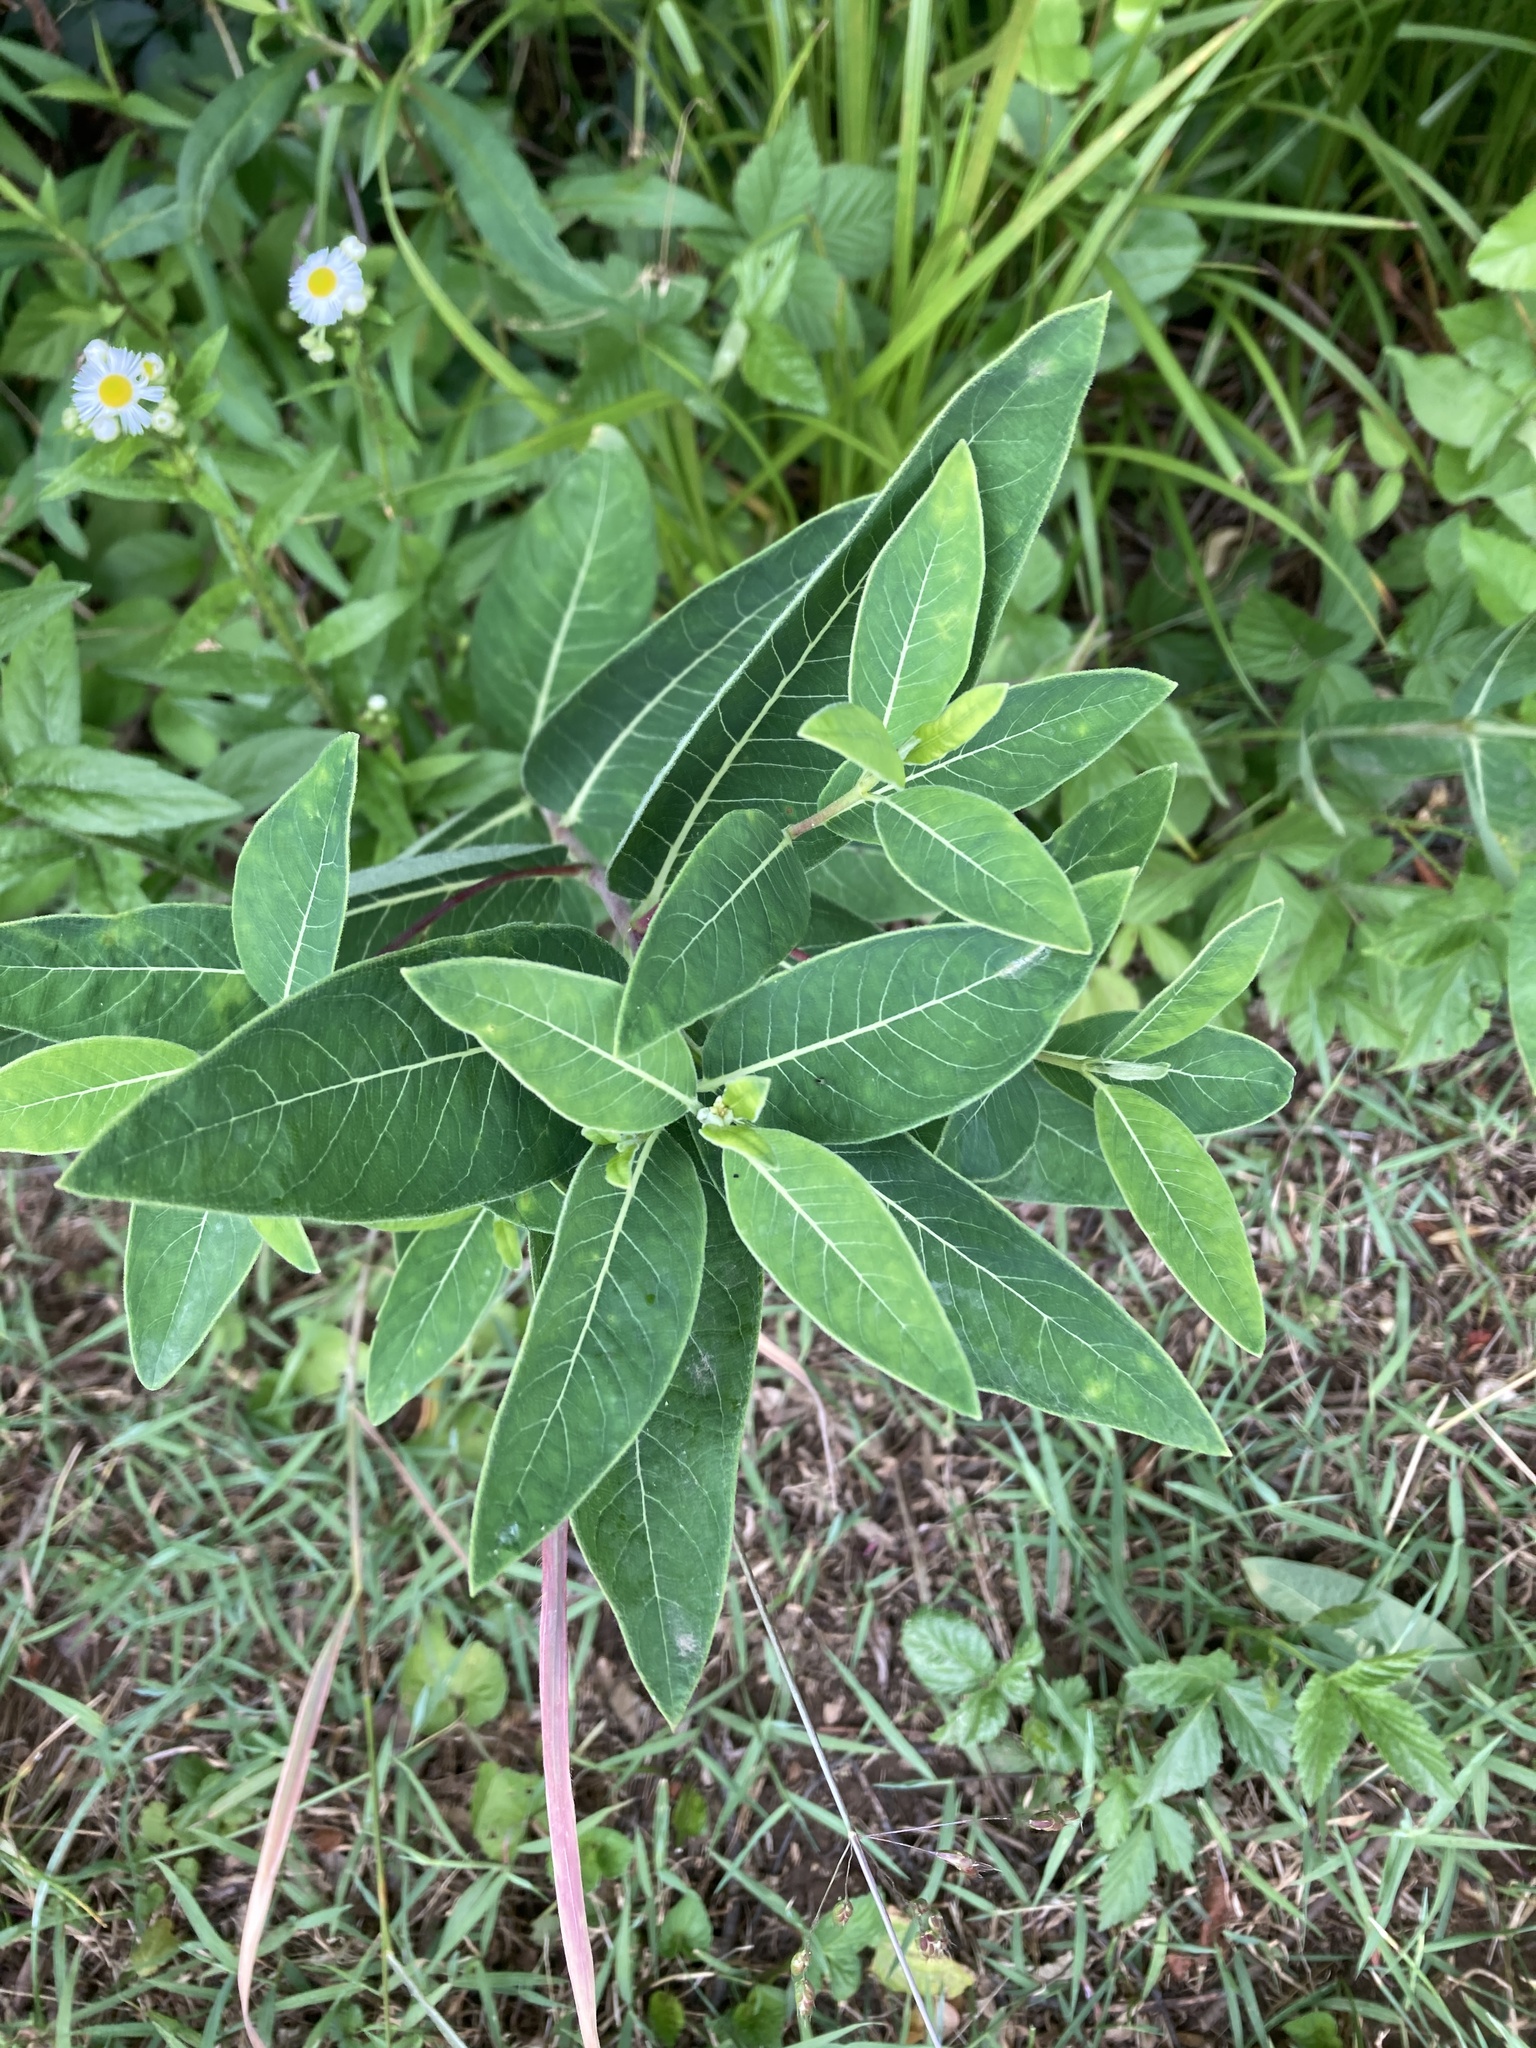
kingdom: Plantae
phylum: Tracheophyta
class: Magnoliopsida
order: Gentianales
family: Apocynaceae
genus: Apocynum
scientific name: Apocynum cannabinum
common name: Hemp dogbane
